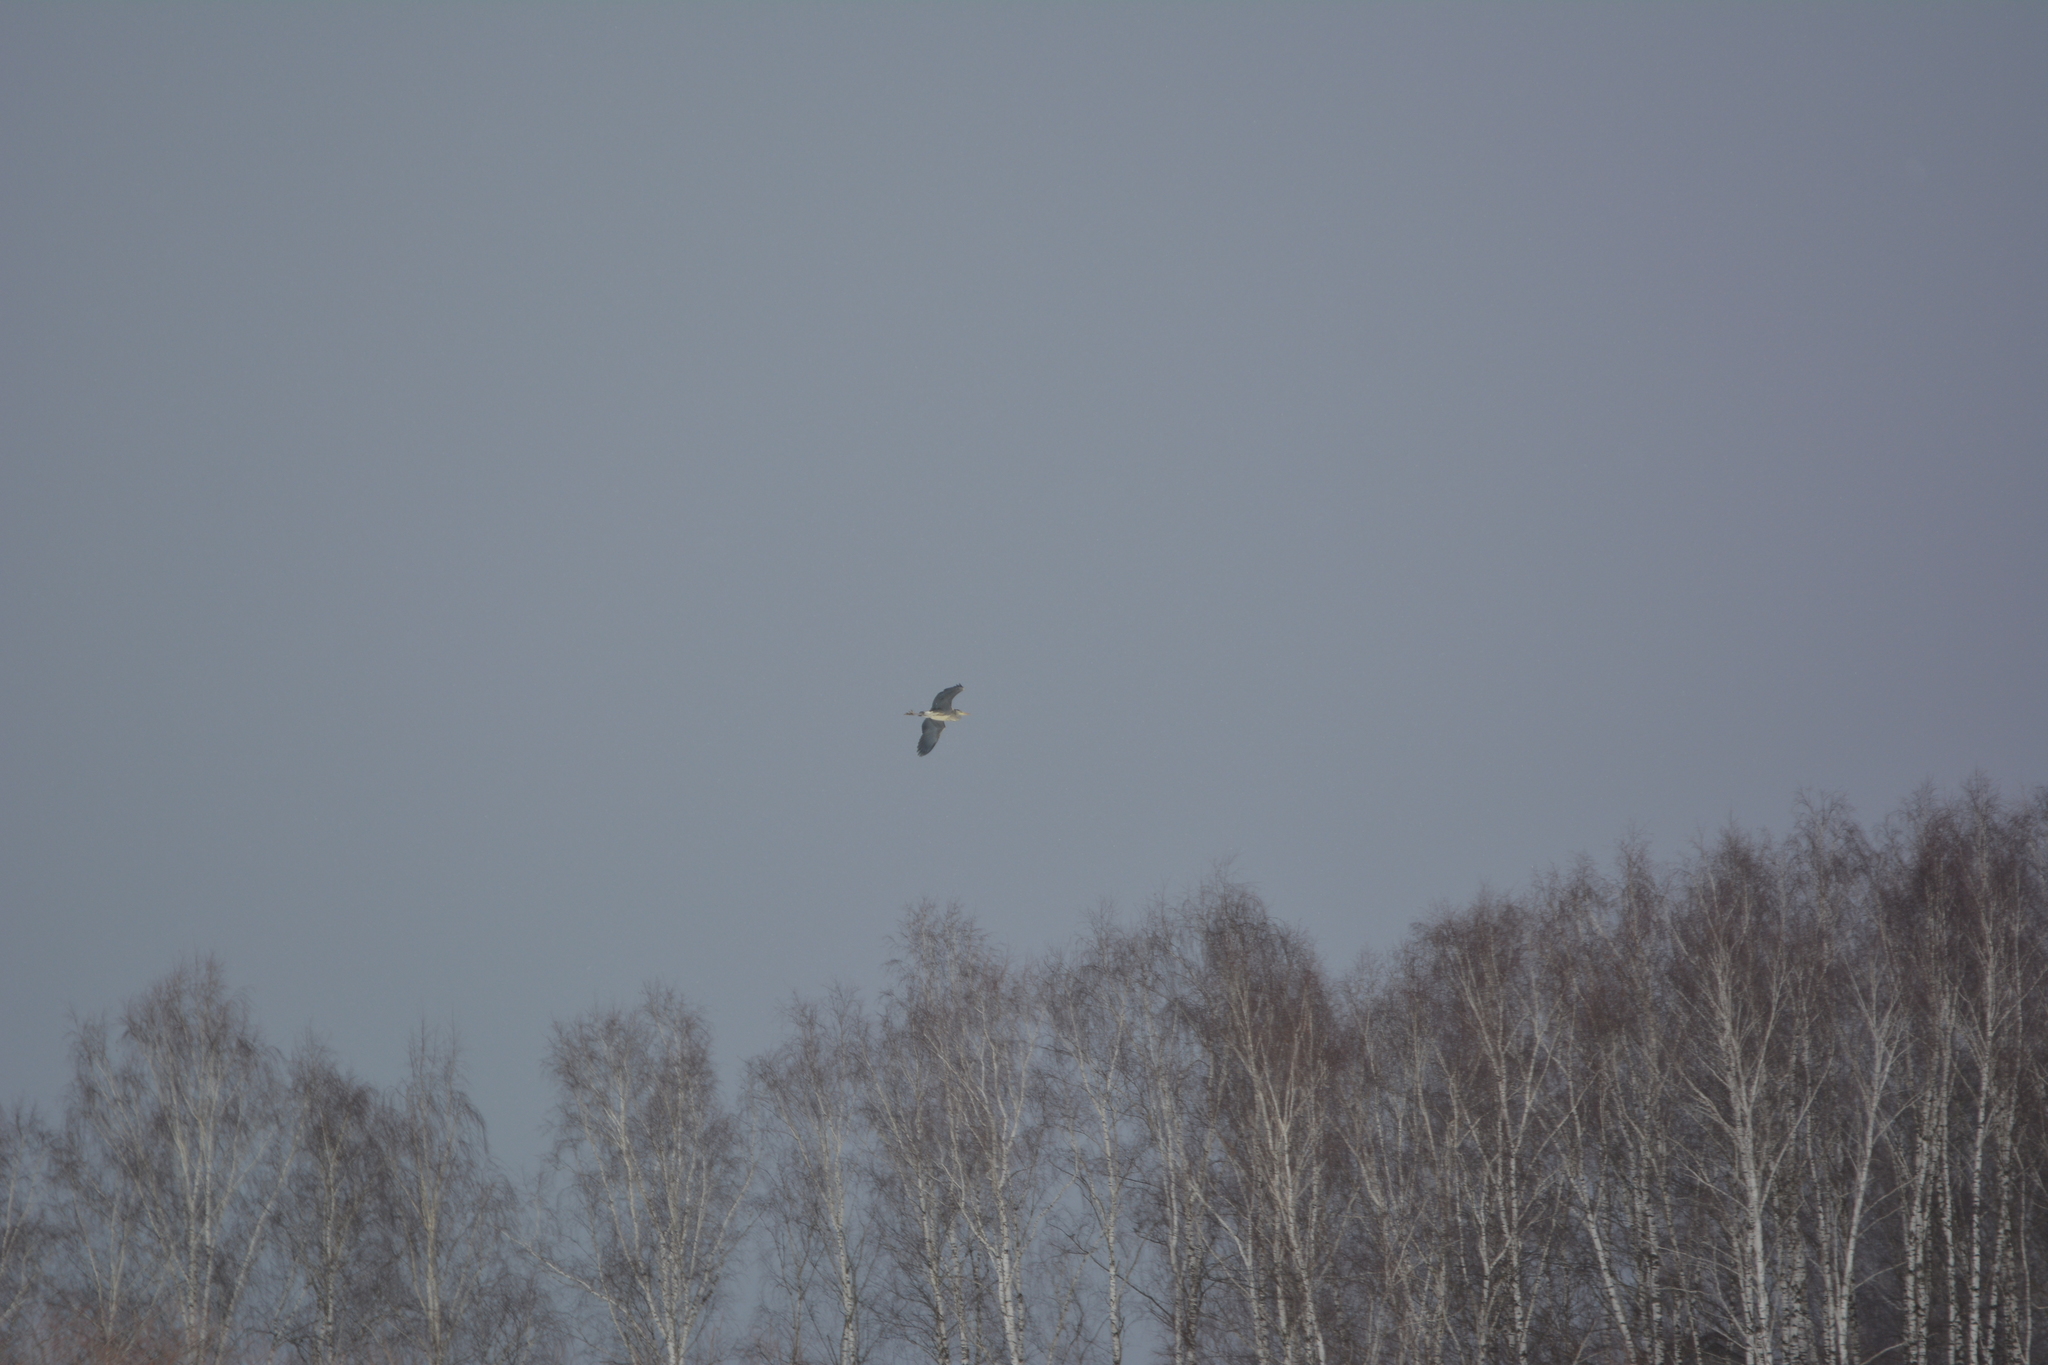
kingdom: Animalia
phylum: Chordata
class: Aves
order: Pelecaniformes
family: Ardeidae
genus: Ardea
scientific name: Ardea cinerea
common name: Grey heron
